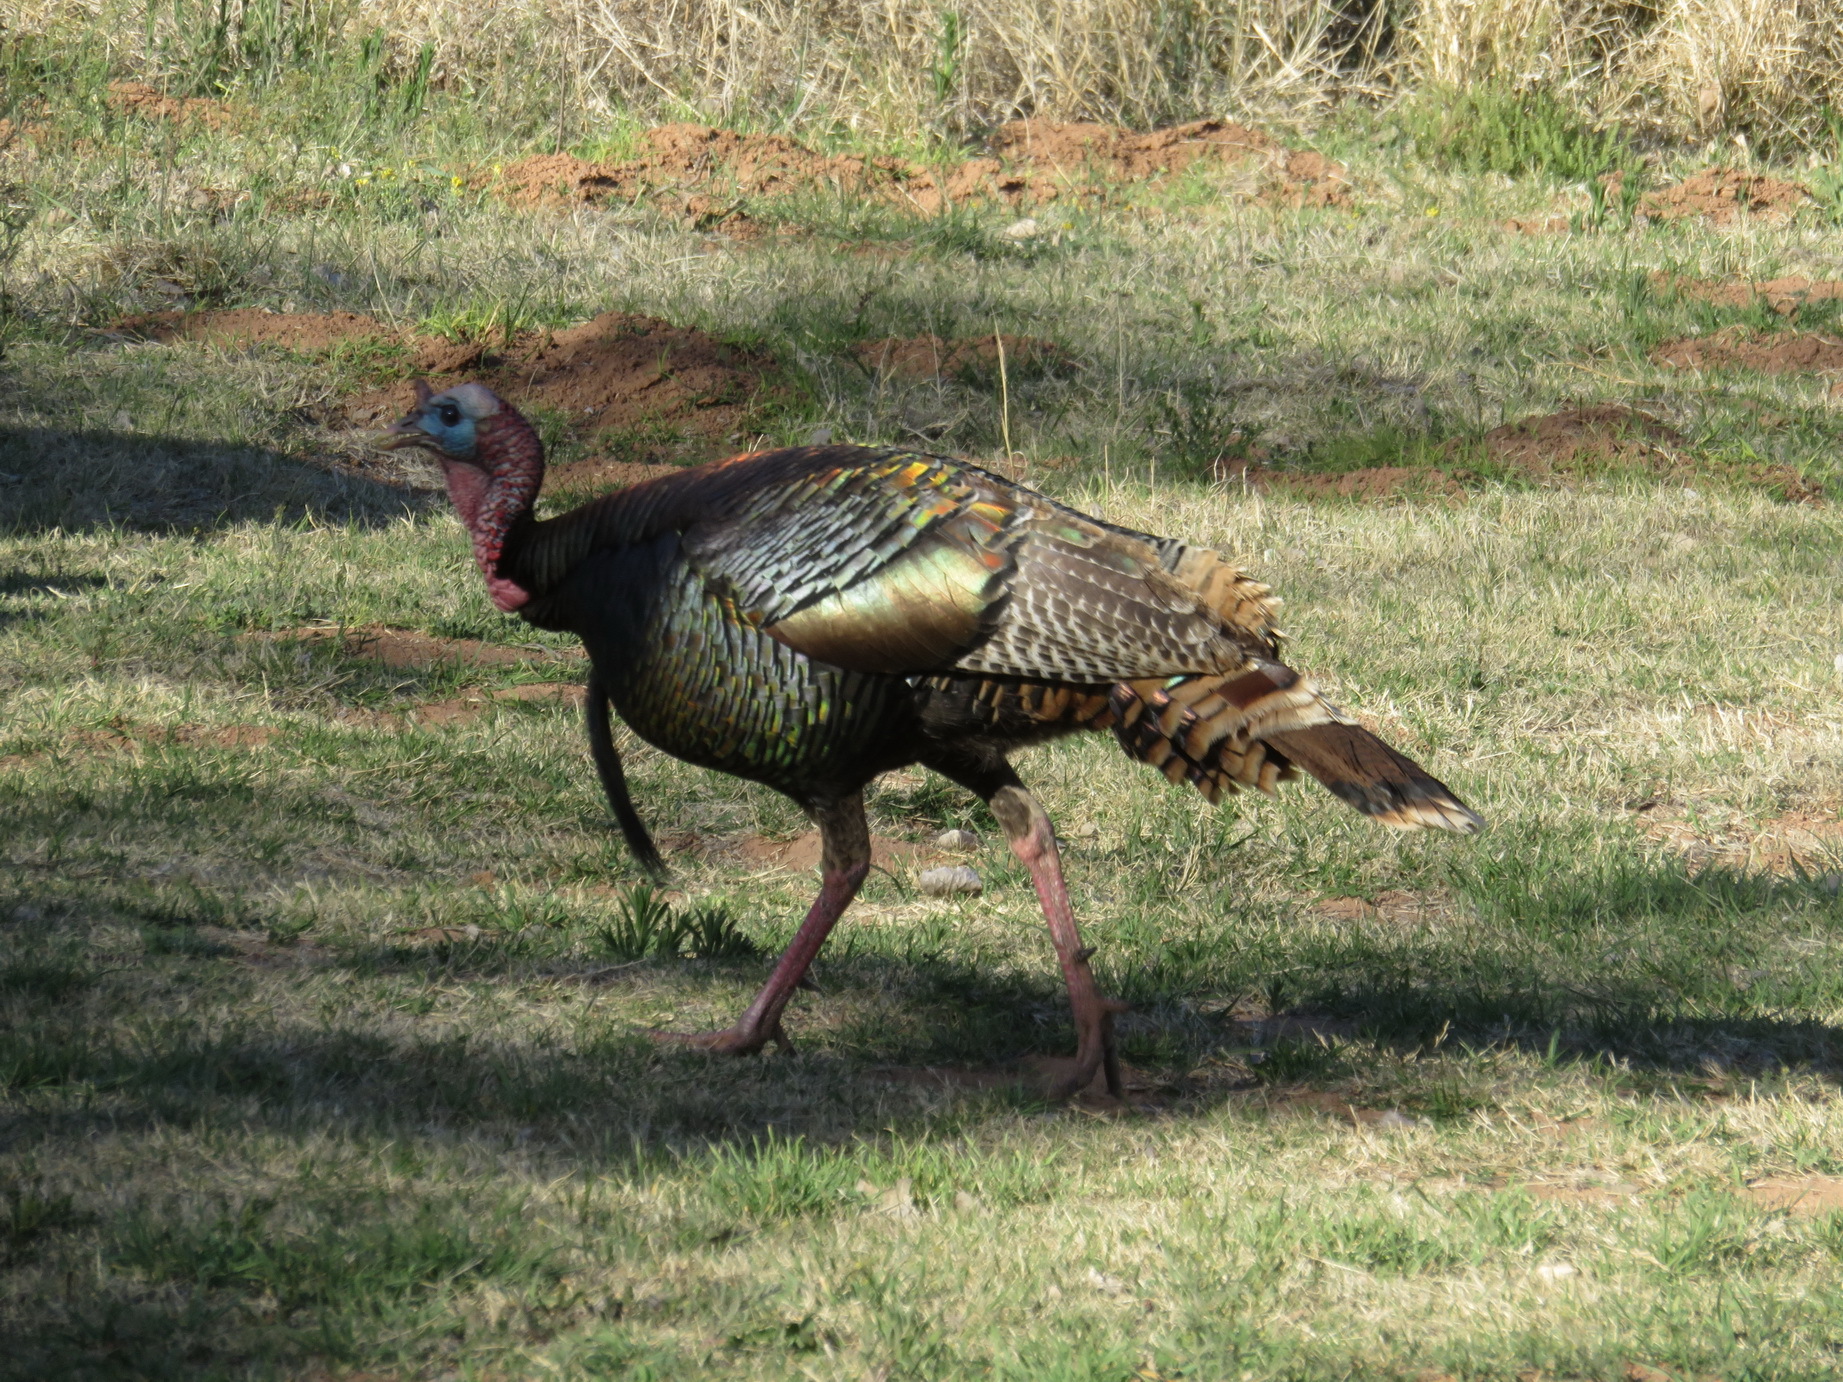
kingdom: Animalia
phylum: Chordata
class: Aves
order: Galliformes
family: Phasianidae
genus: Meleagris
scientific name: Meleagris gallopavo
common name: Wild turkey
